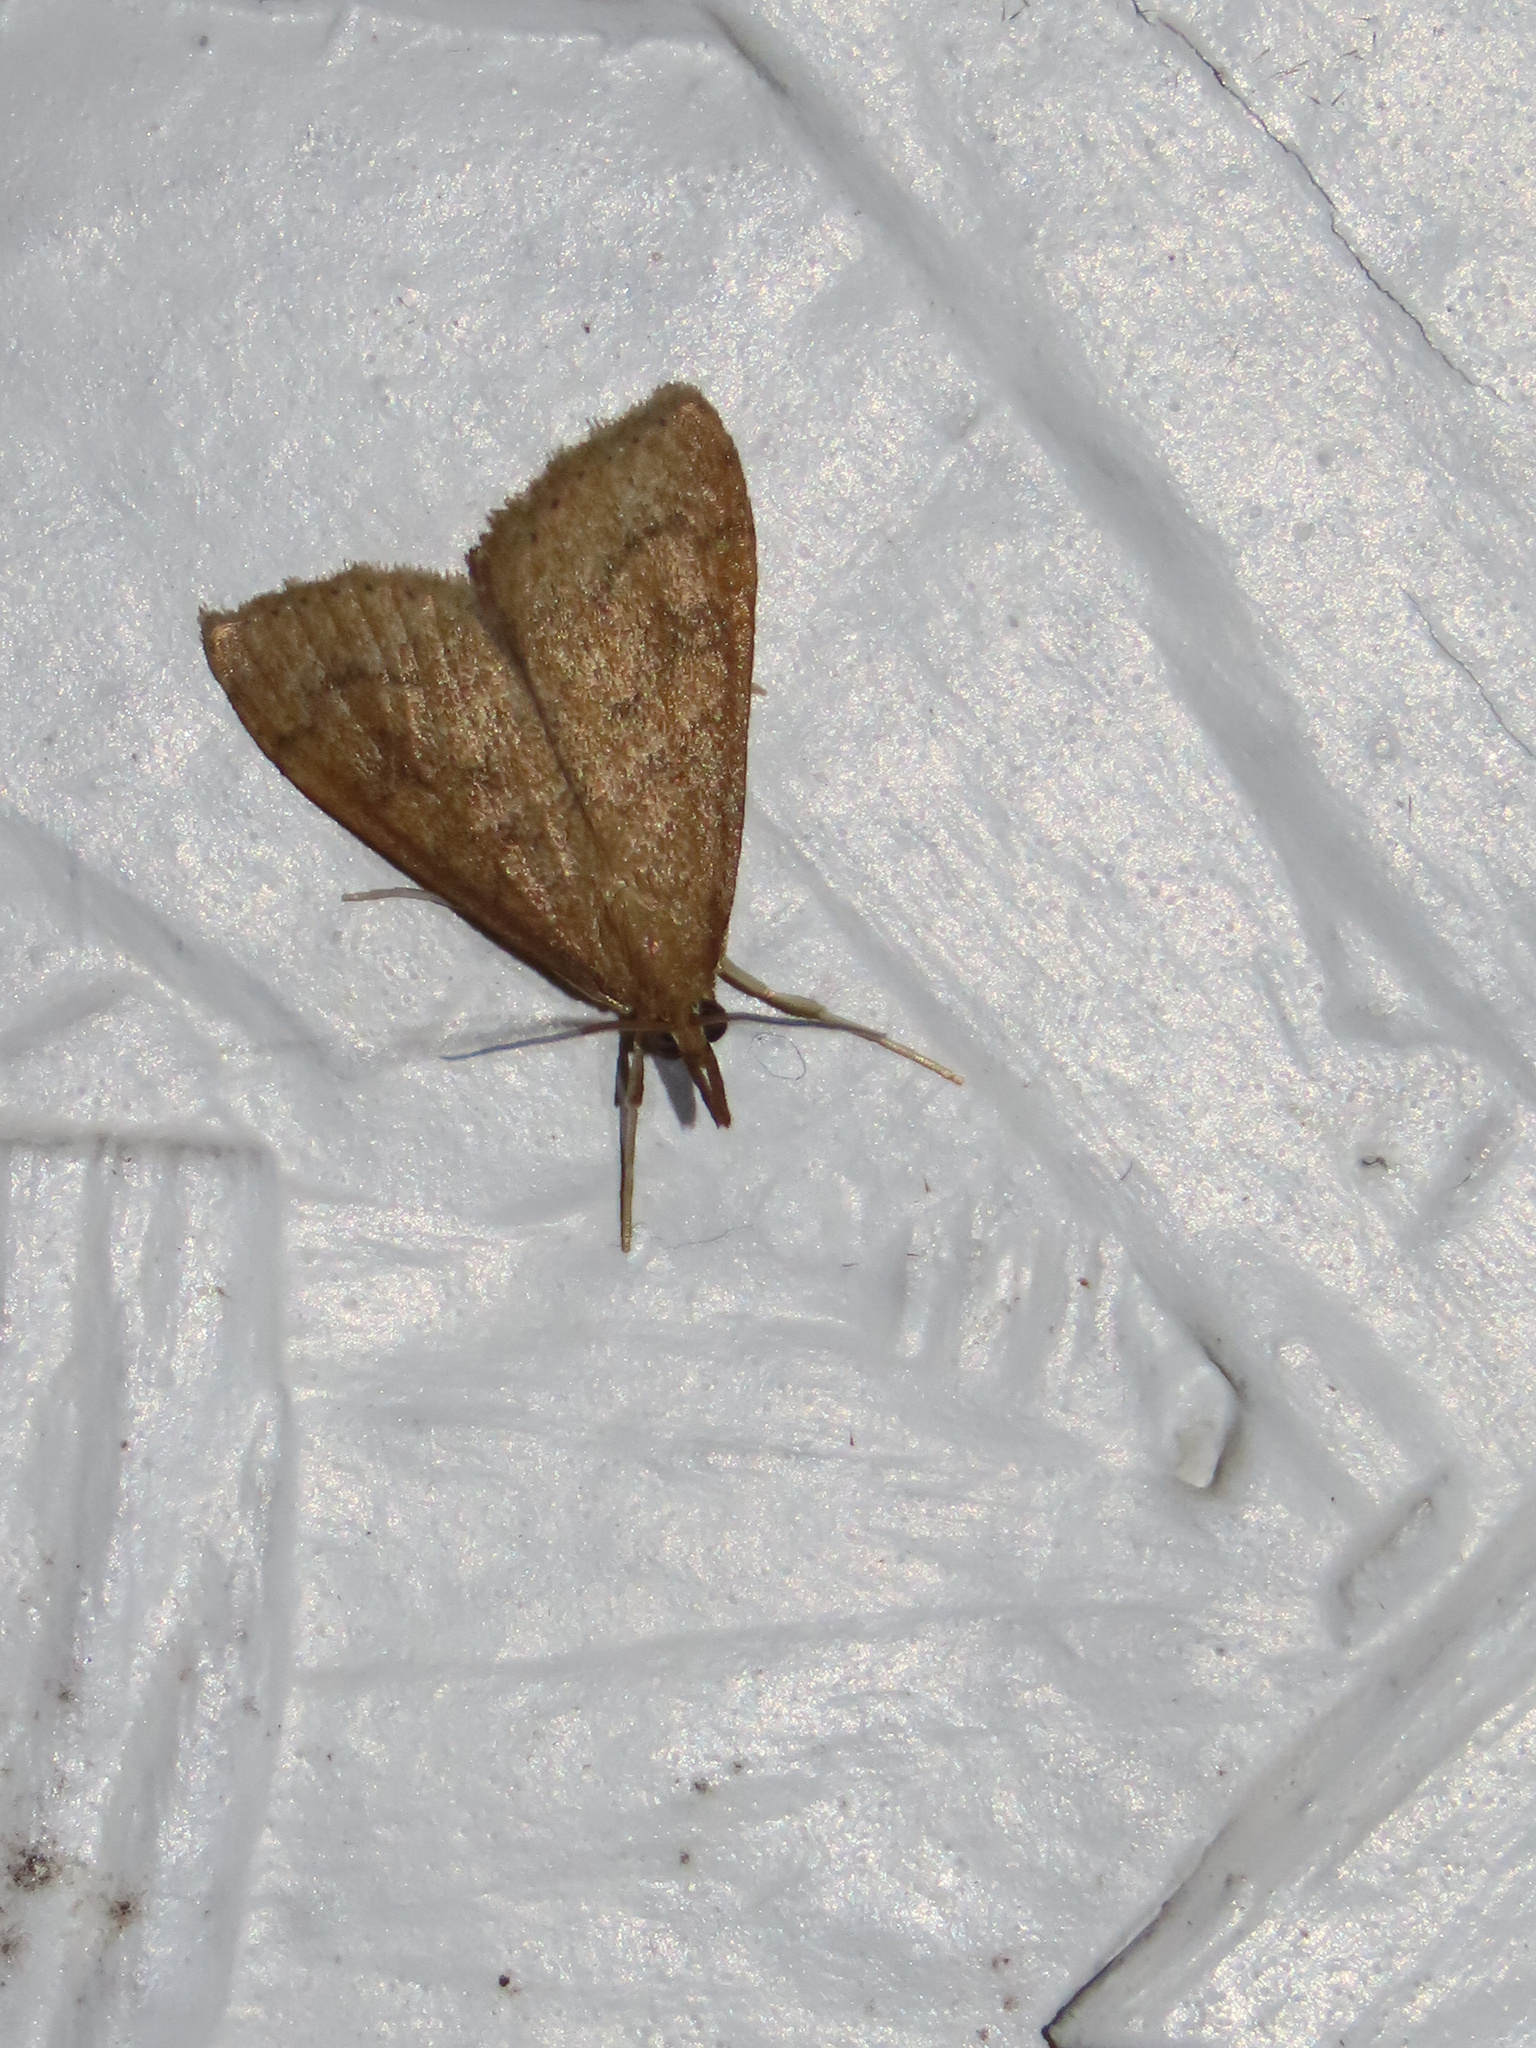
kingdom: Animalia
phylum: Arthropoda
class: Insecta
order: Lepidoptera
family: Crambidae
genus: Udea
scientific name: Udea rubigalis
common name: Celery leaftier moth
